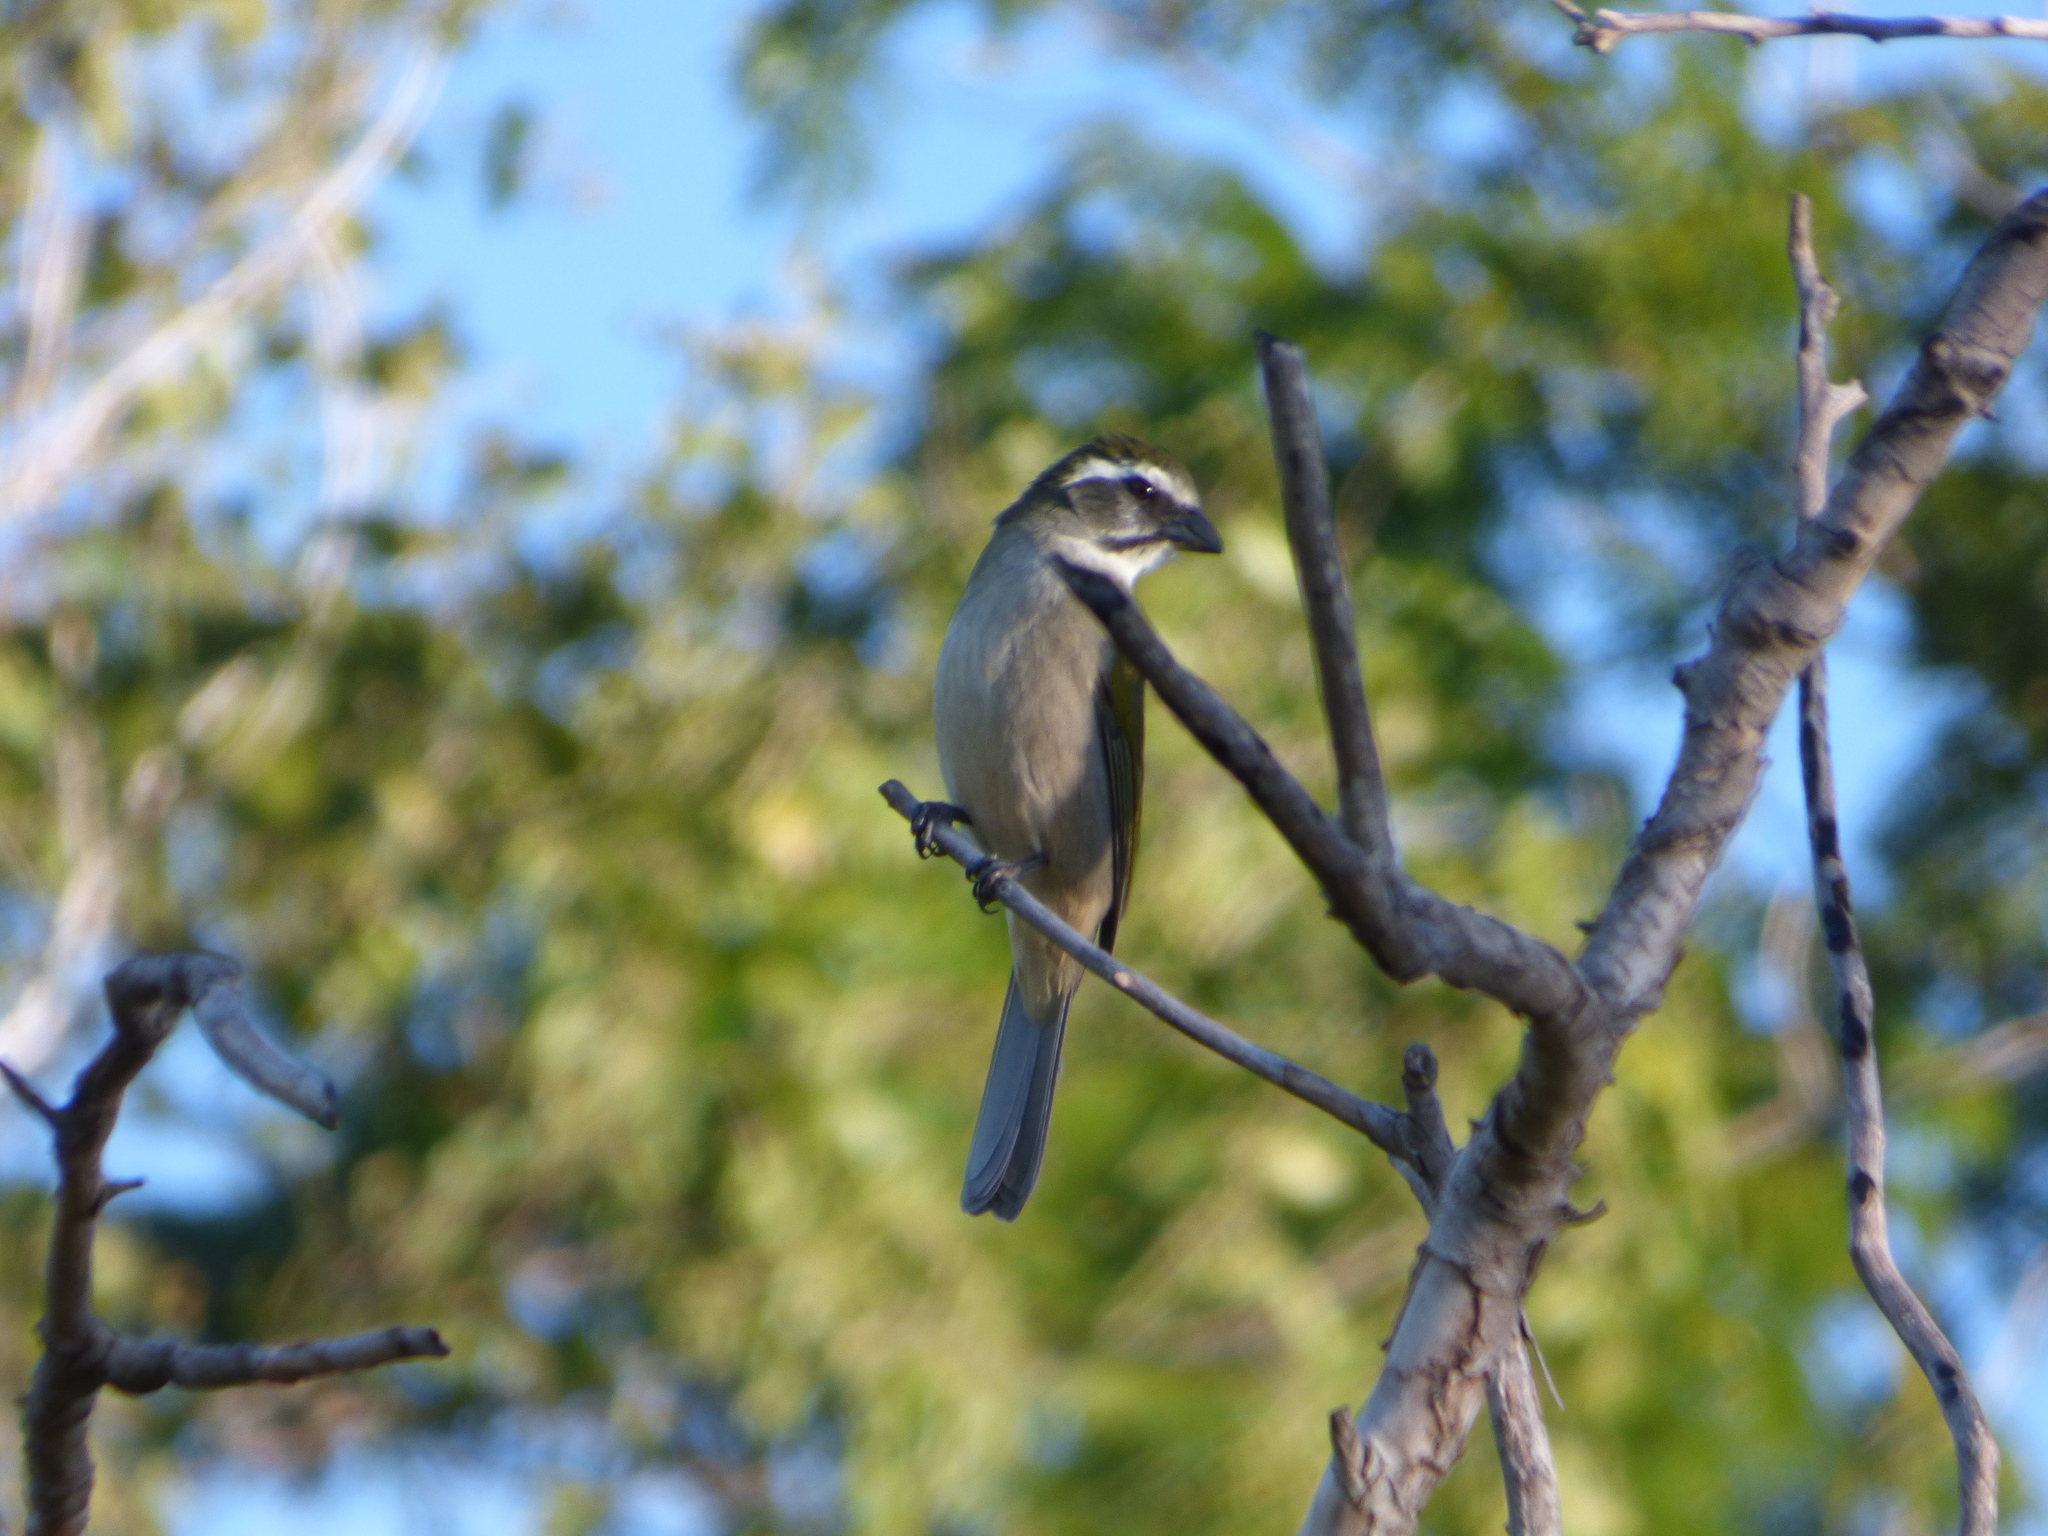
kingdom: Animalia
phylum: Chordata
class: Aves
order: Passeriformes
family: Thraupidae
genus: Saltator
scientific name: Saltator similis
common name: Green-winged saltator
